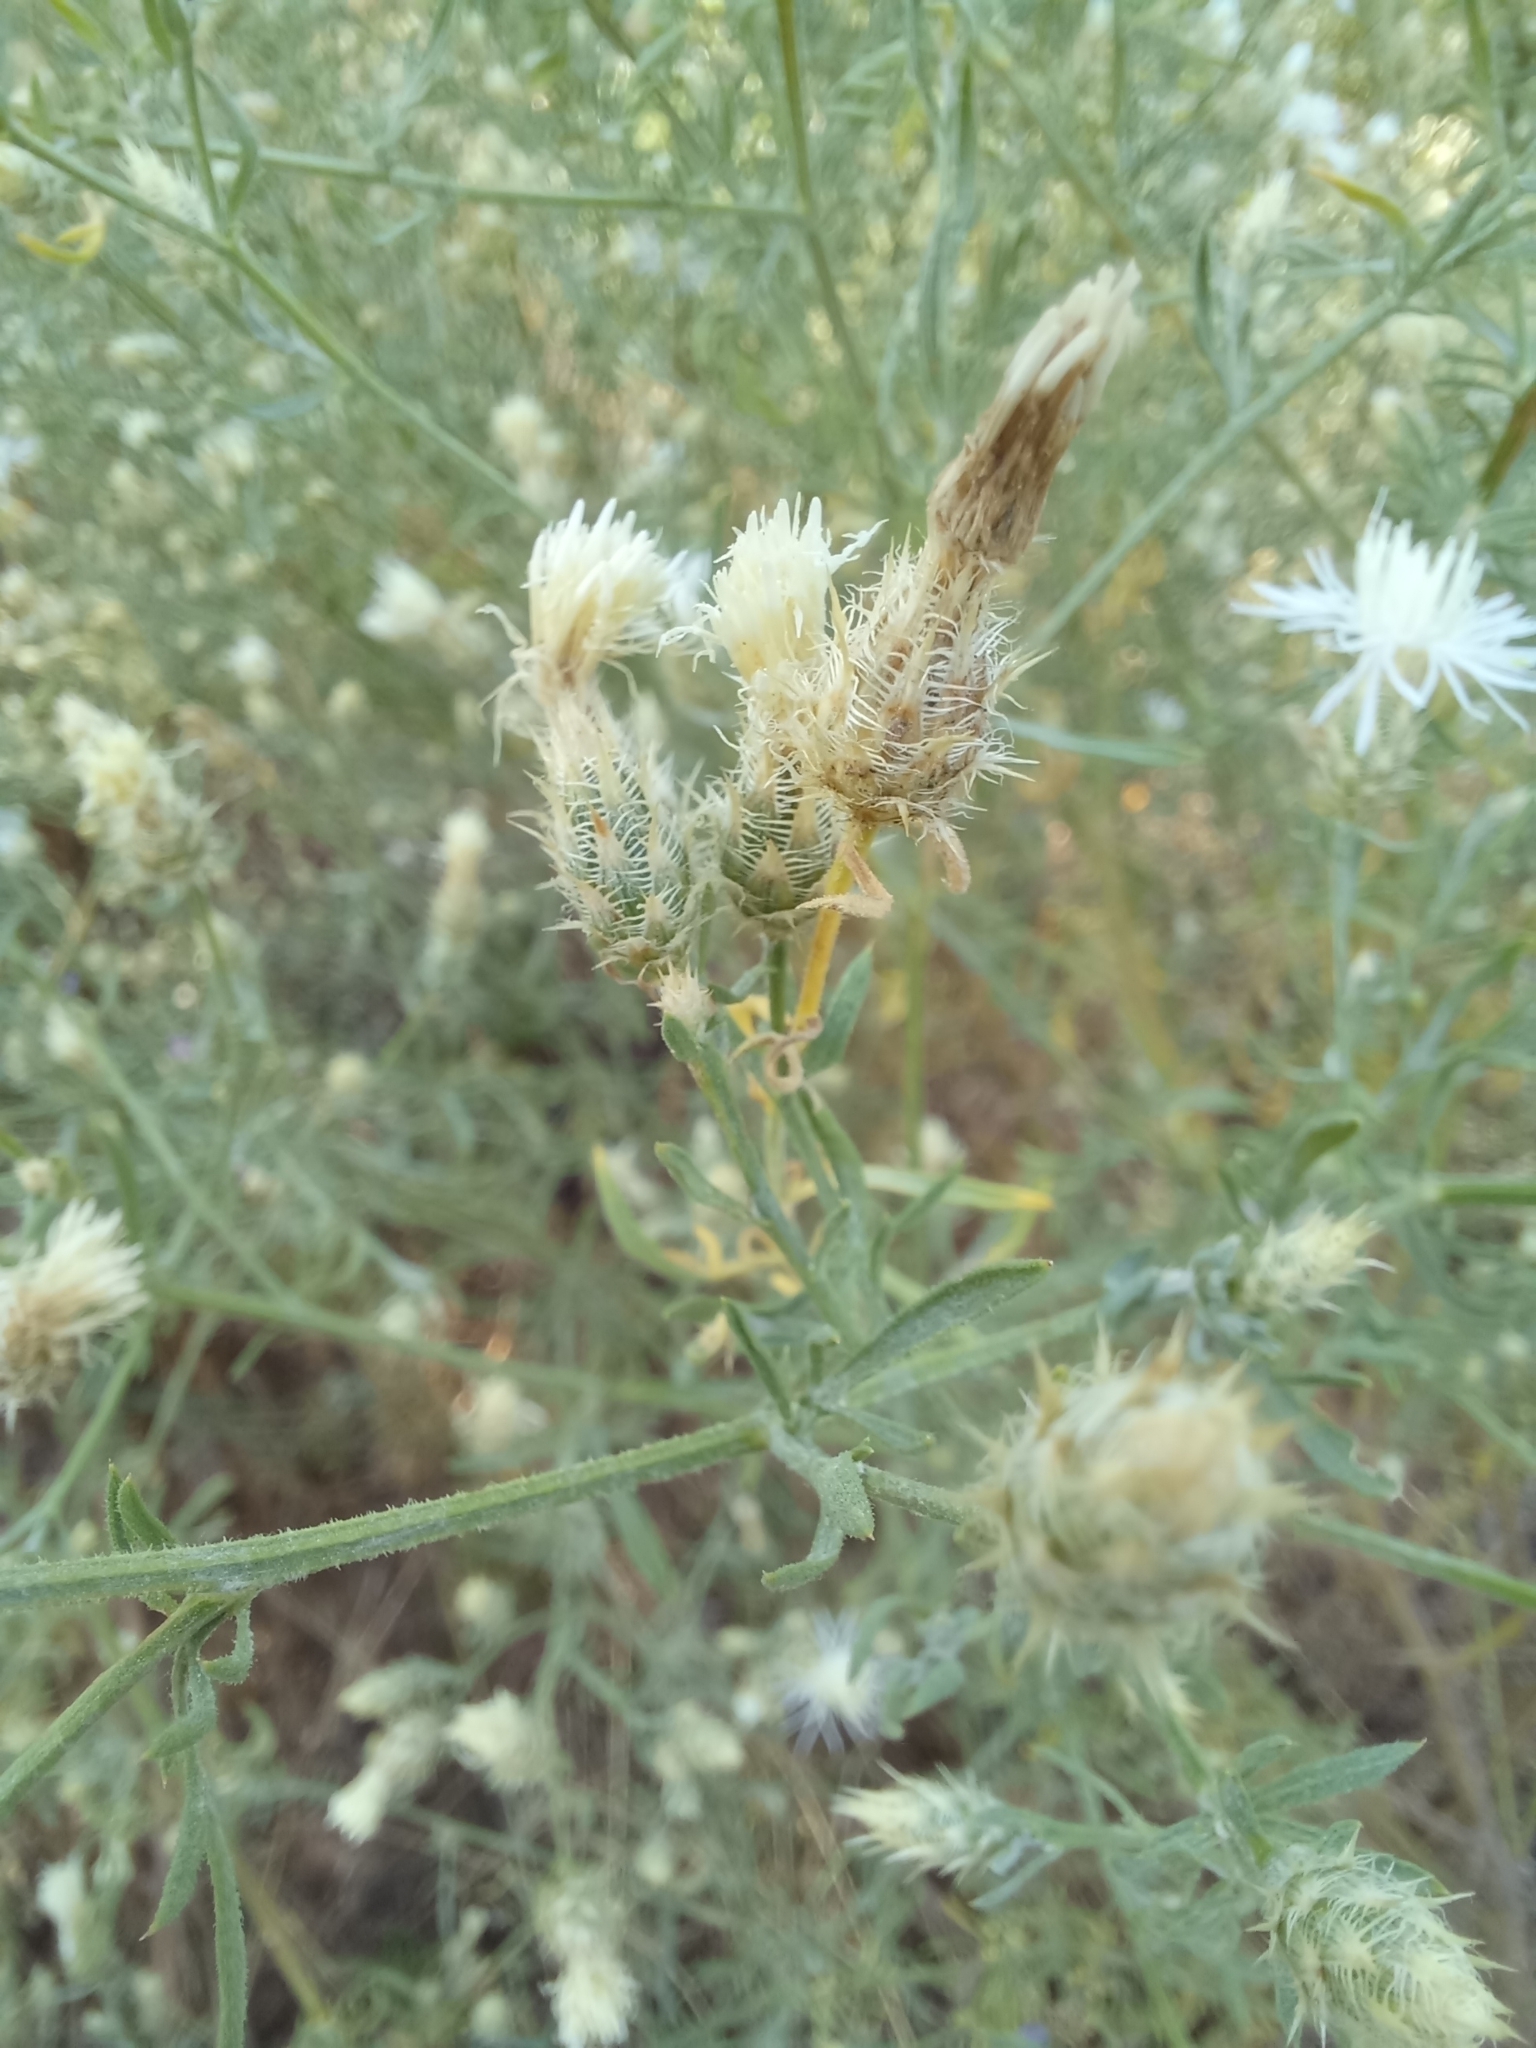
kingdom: Plantae
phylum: Tracheophyta
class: Magnoliopsida
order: Asterales
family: Asteraceae
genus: Centaurea
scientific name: Centaurea diffusa
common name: Diffuse knapweed
